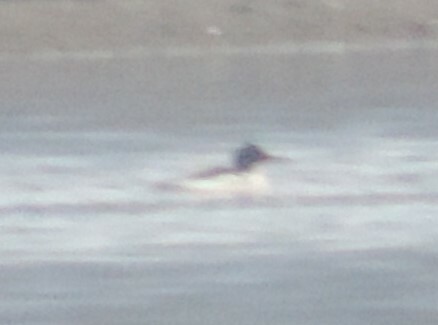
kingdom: Animalia
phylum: Chordata
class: Aves
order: Anseriformes
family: Anatidae
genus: Mergus
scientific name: Mergus merganser
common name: Common merganser
